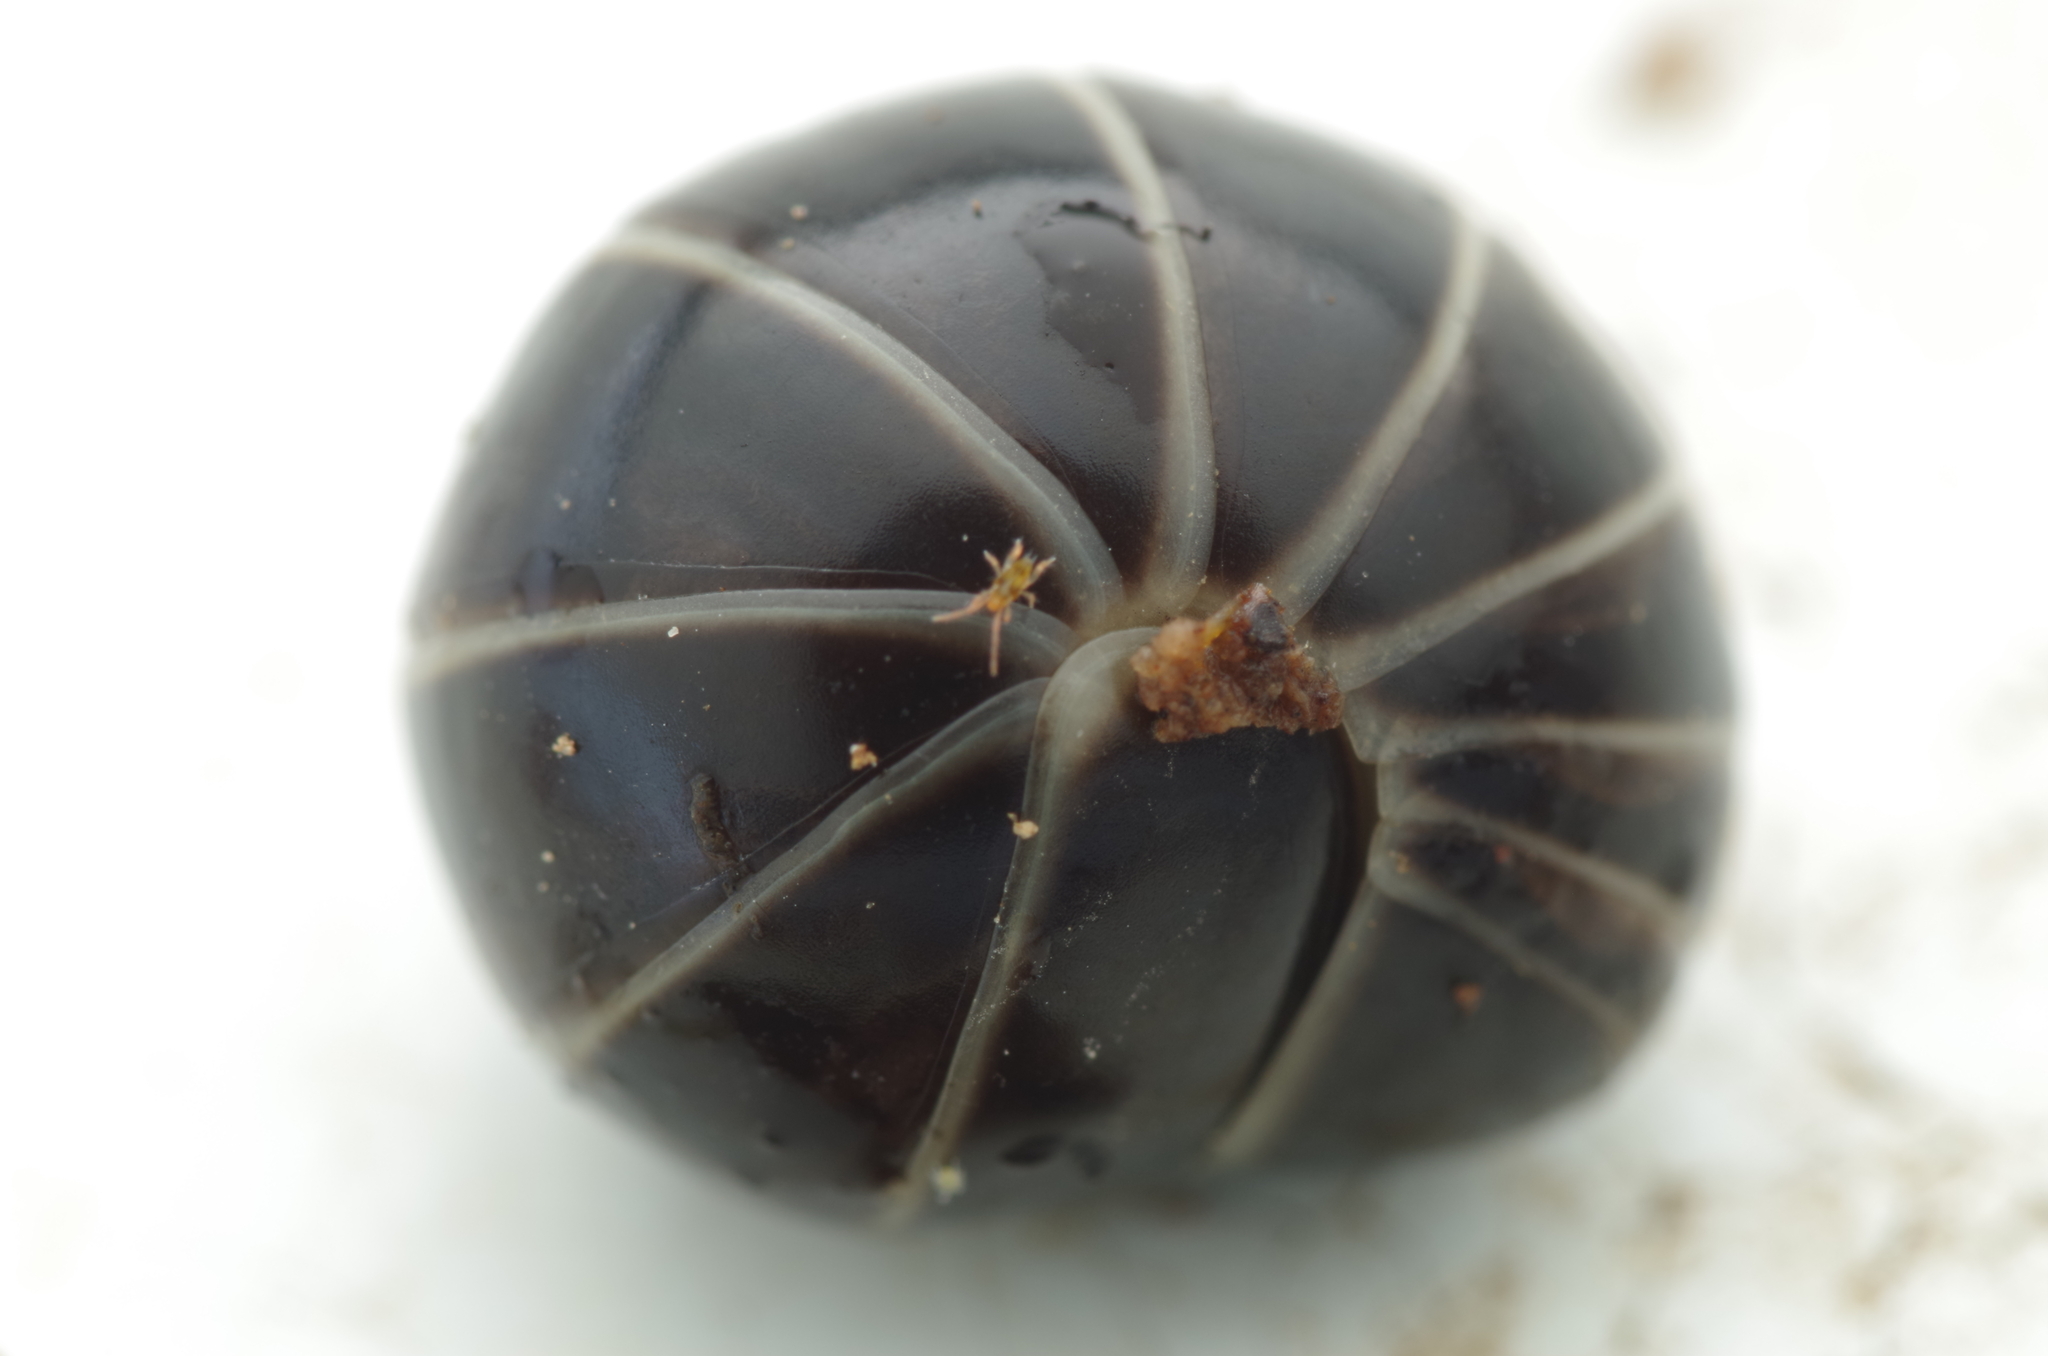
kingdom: Animalia
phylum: Arthropoda
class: Diplopoda
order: Glomerida
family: Glomeridae
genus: Glomeris
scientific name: Glomeris marginata
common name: Bordered pill millipede
